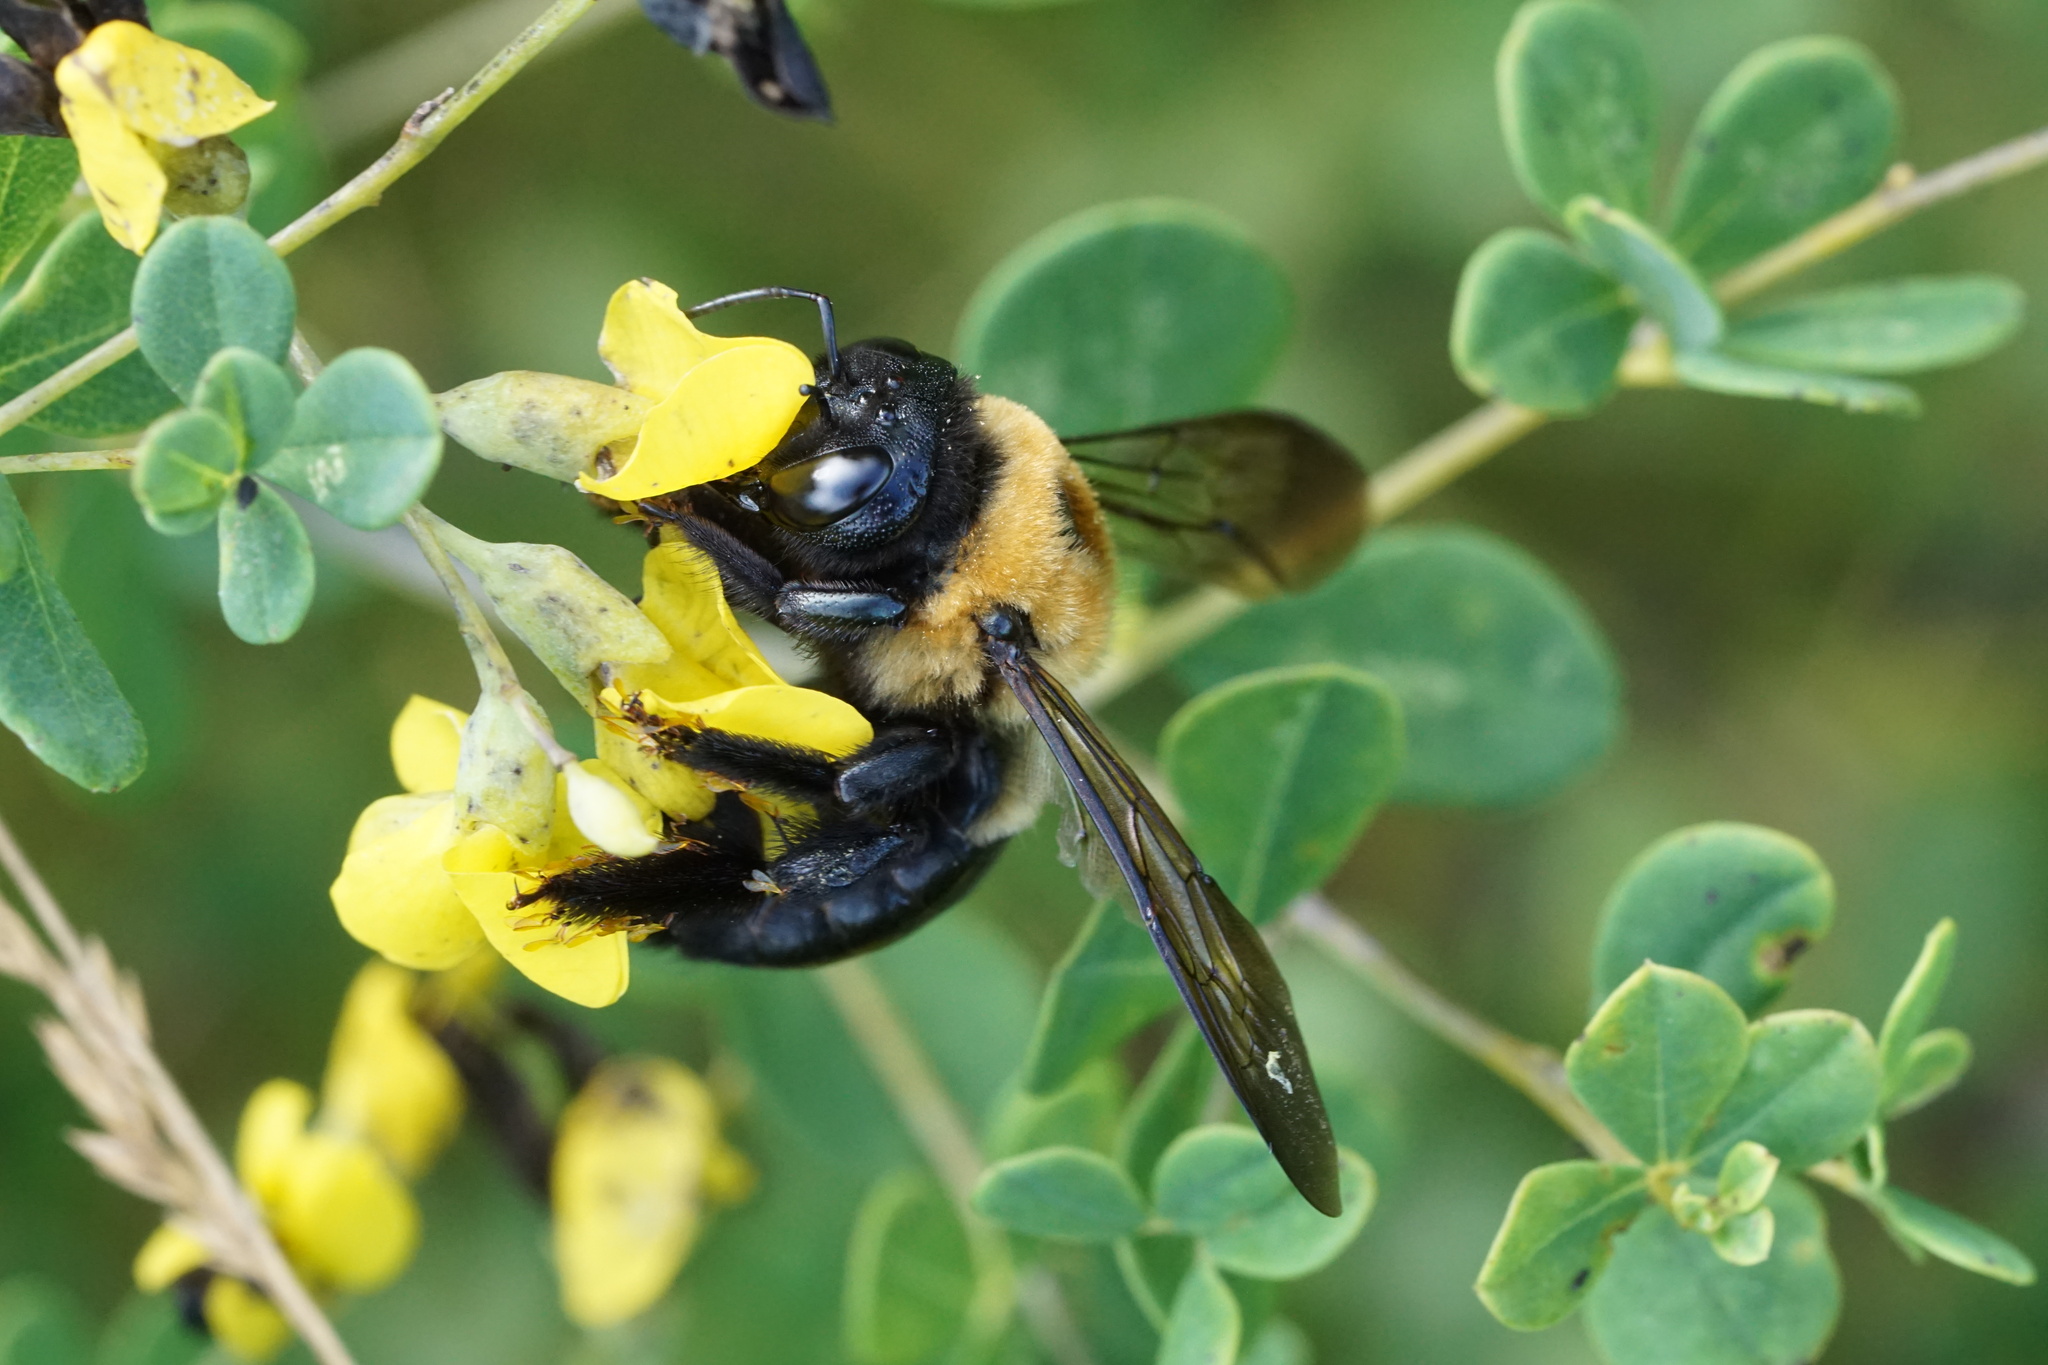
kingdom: Animalia
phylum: Arthropoda
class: Insecta
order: Hymenoptera
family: Apidae
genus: Xylocopa
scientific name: Xylocopa virginica
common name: Carpenter bee
